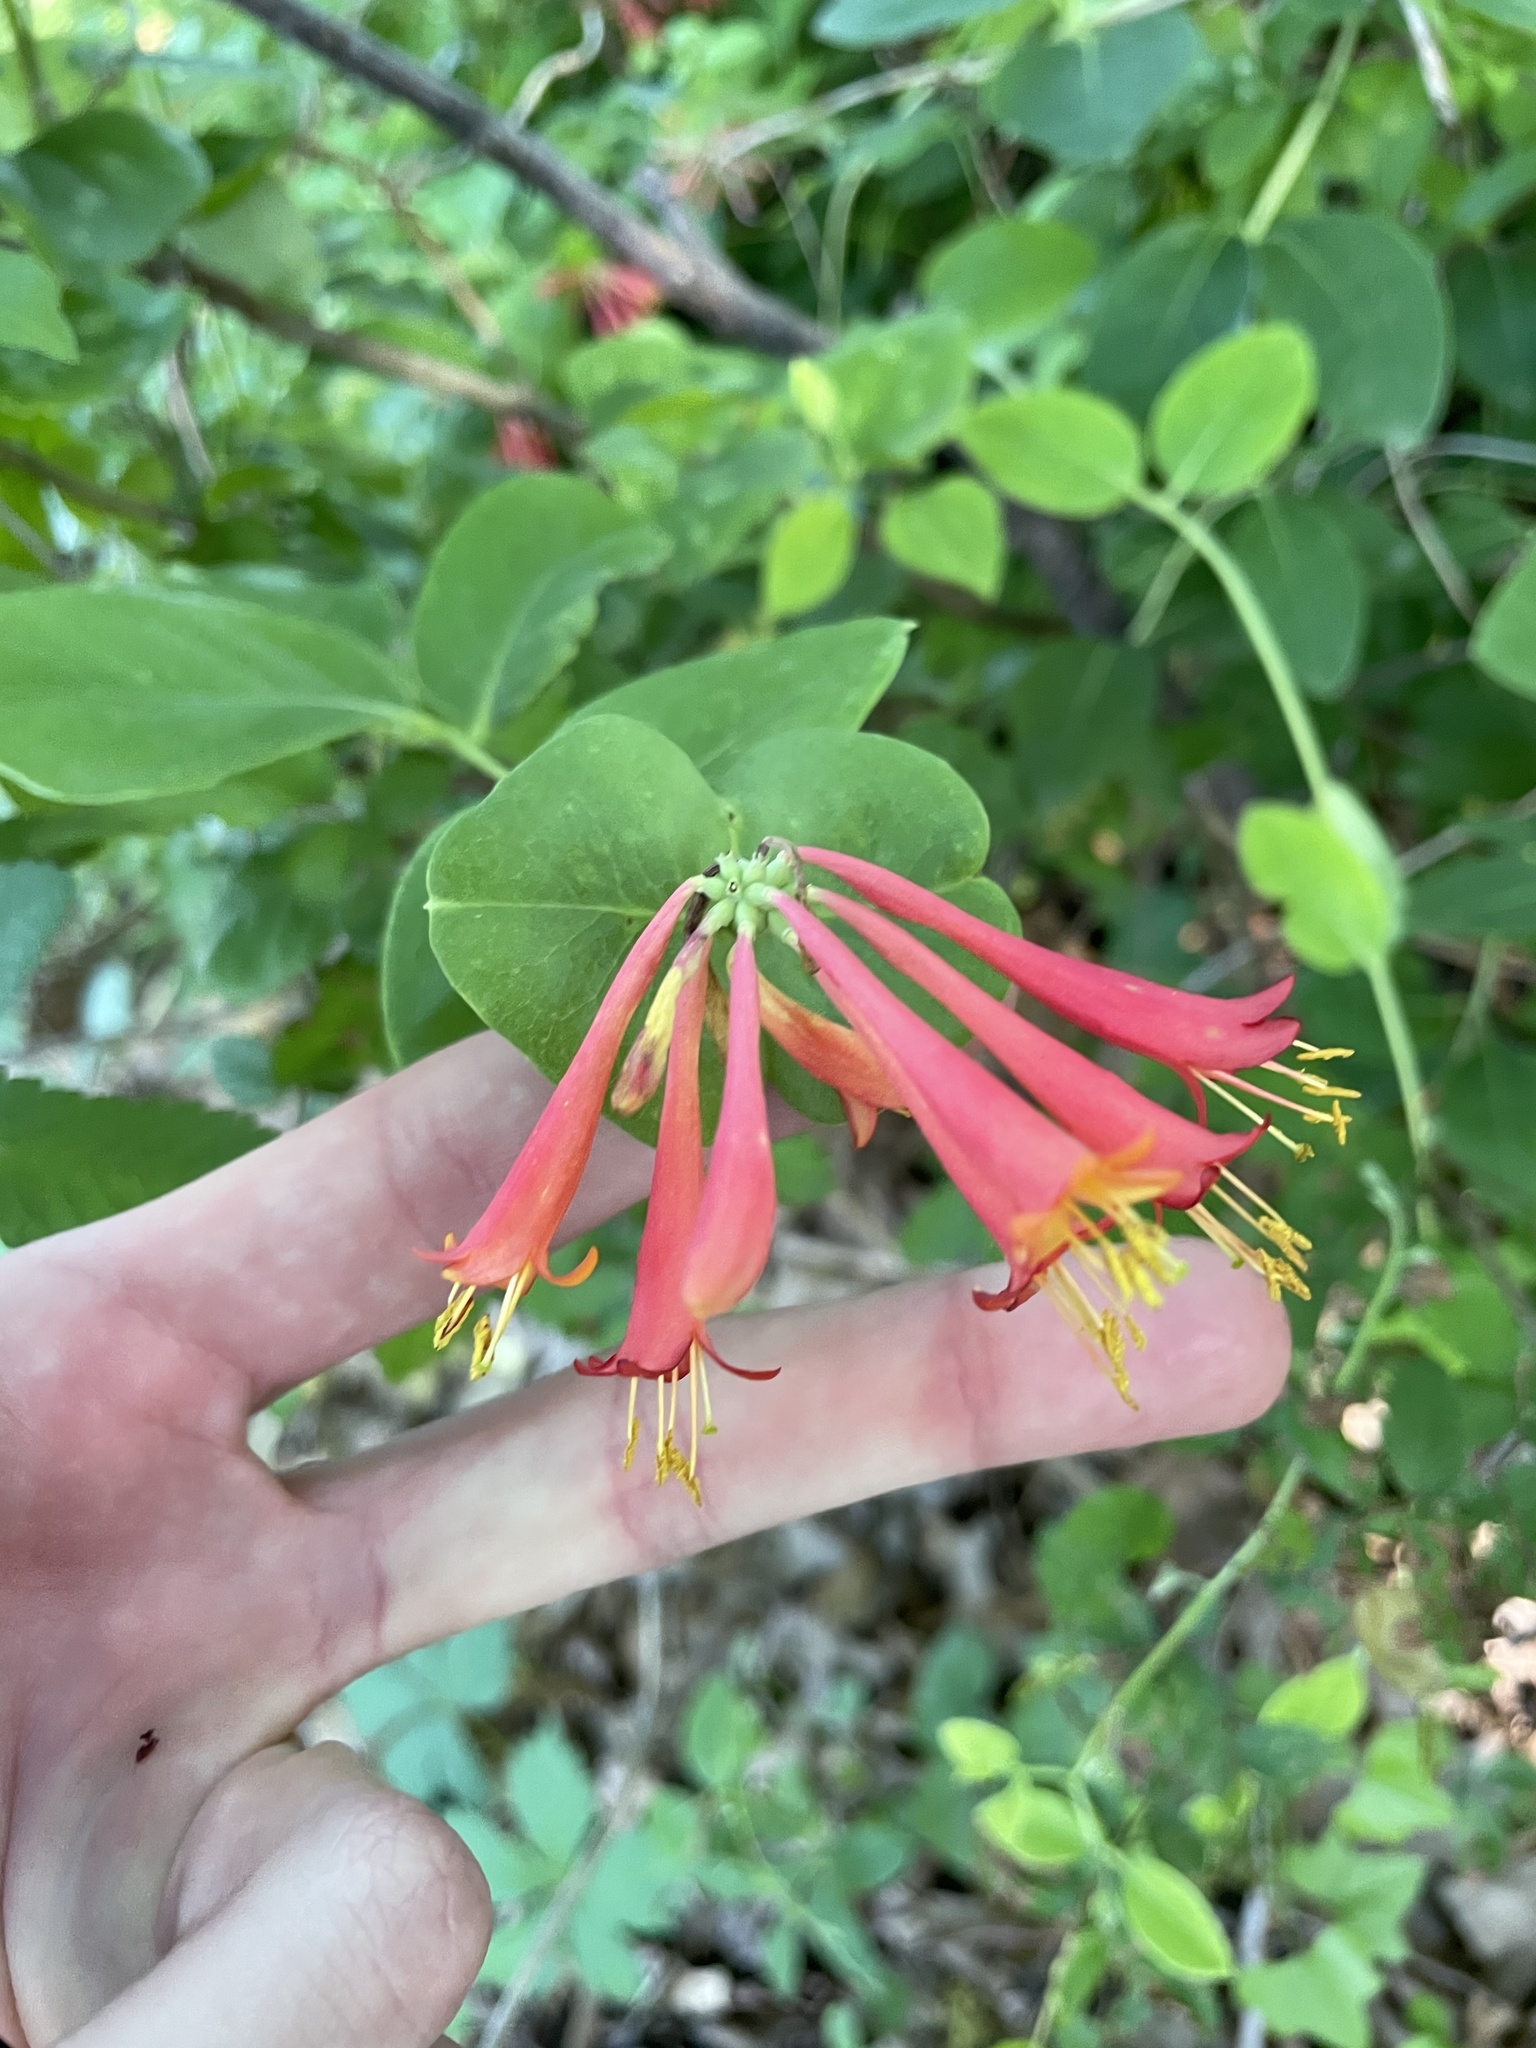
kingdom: Plantae
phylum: Tracheophyta
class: Magnoliopsida
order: Dipsacales
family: Caprifoliaceae
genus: Lonicera
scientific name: Lonicera sempervirens
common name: Coral honeysuckle
